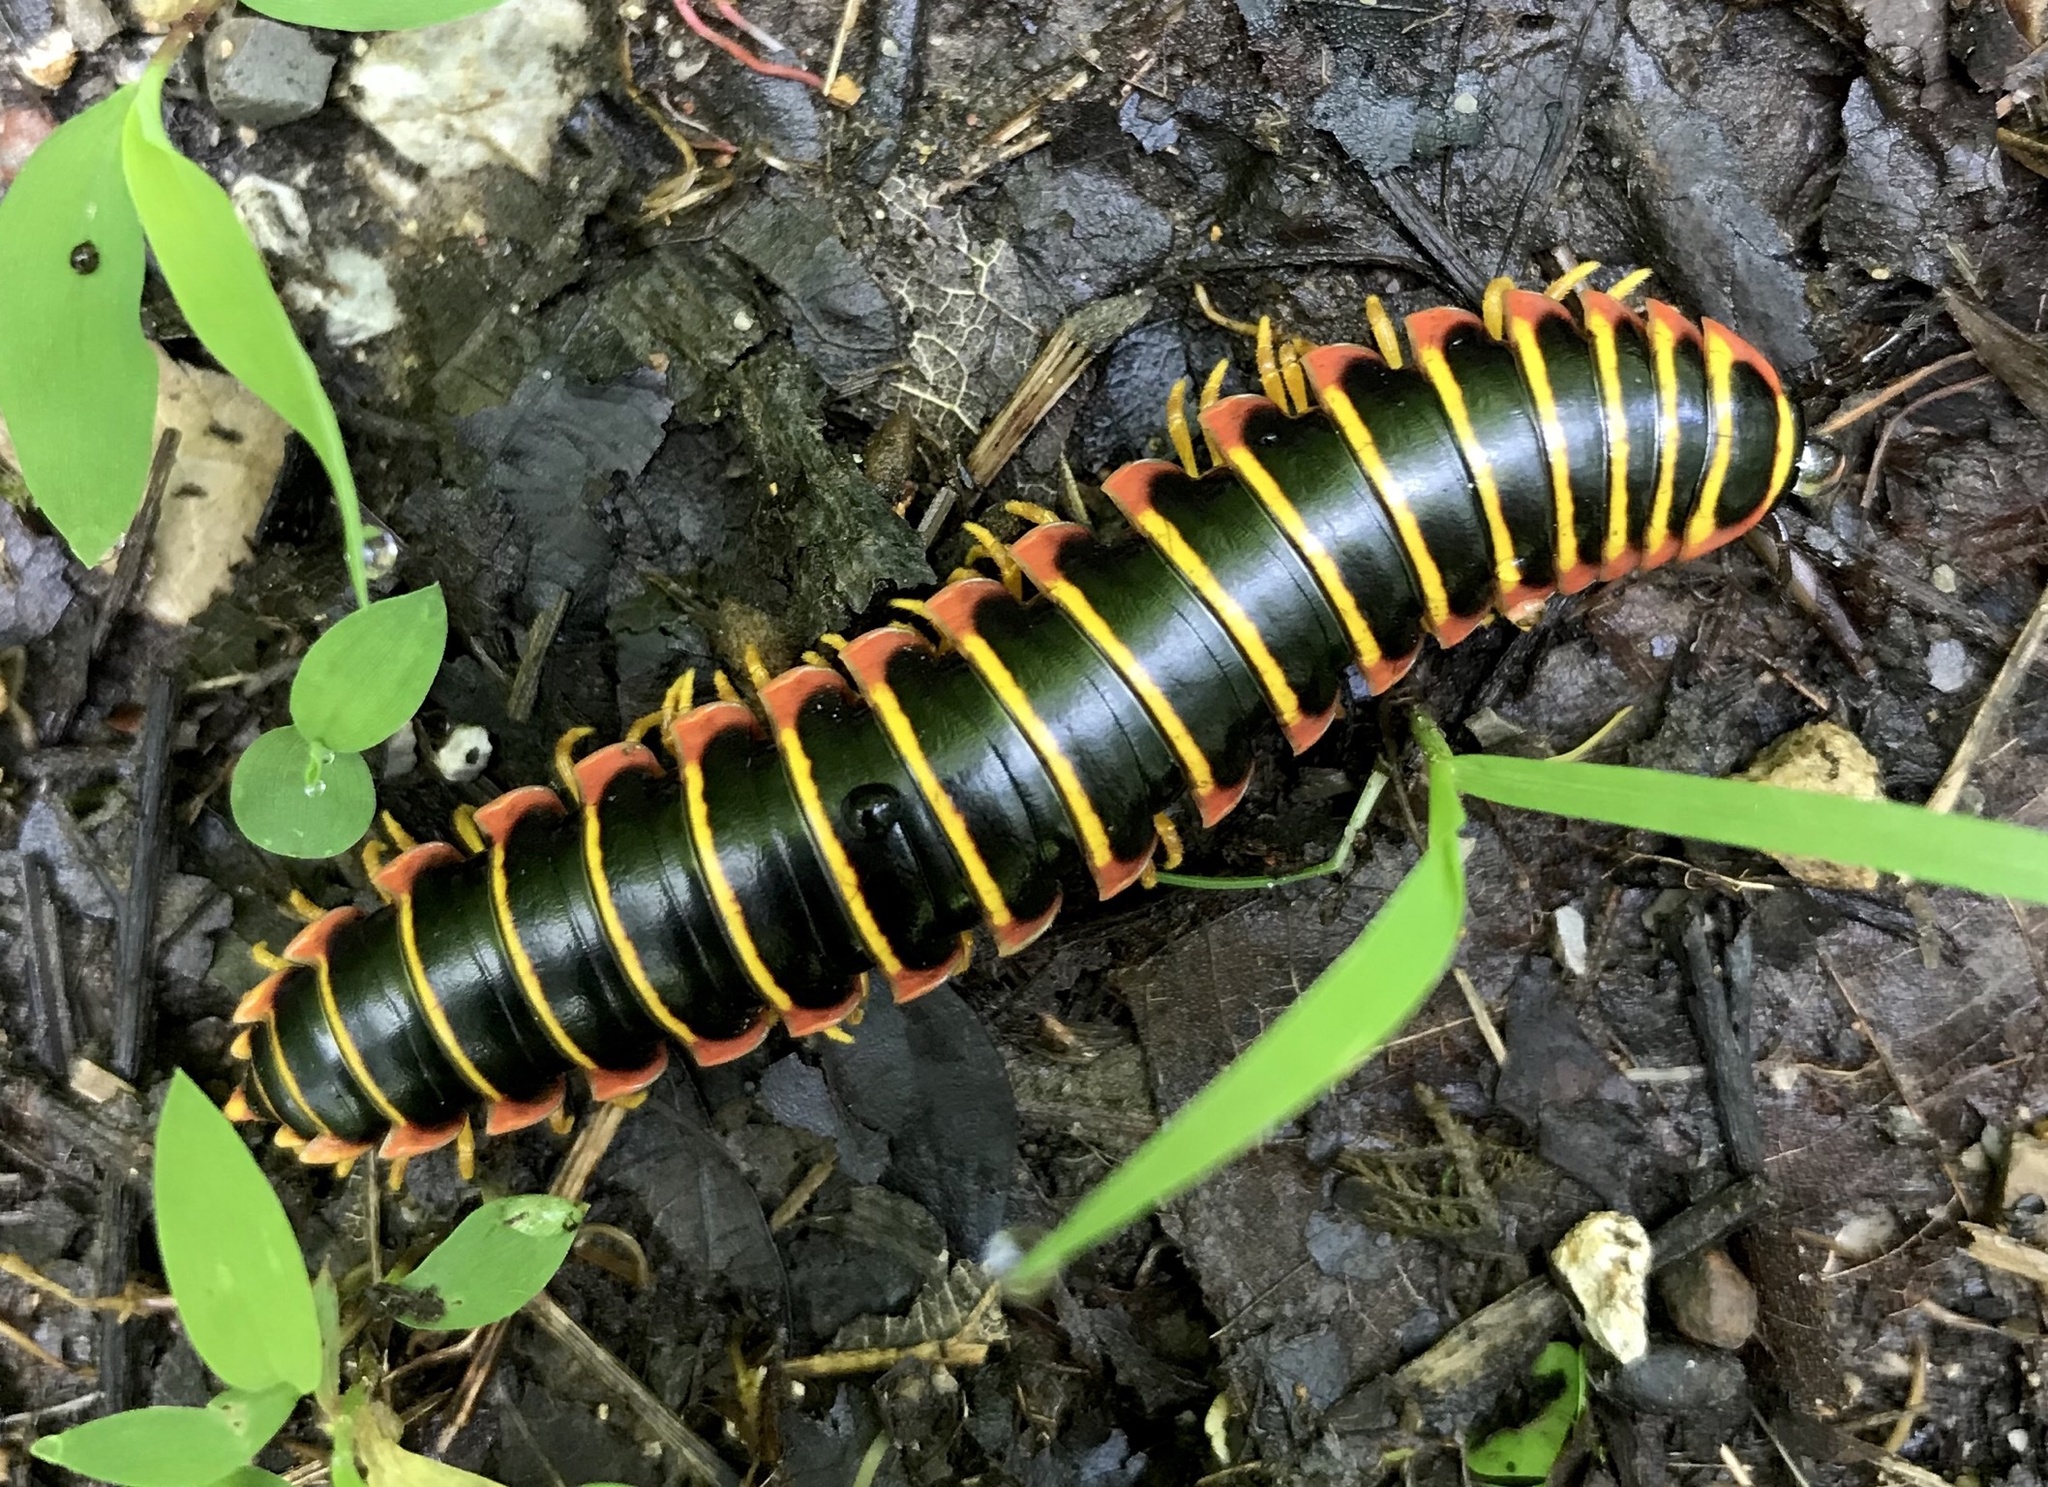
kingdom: Animalia
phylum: Arthropoda
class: Diplopoda
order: Polydesmida
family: Xystodesmidae
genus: Apheloria
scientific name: Apheloria virginiensis
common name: Black-and-gold flat millipede
